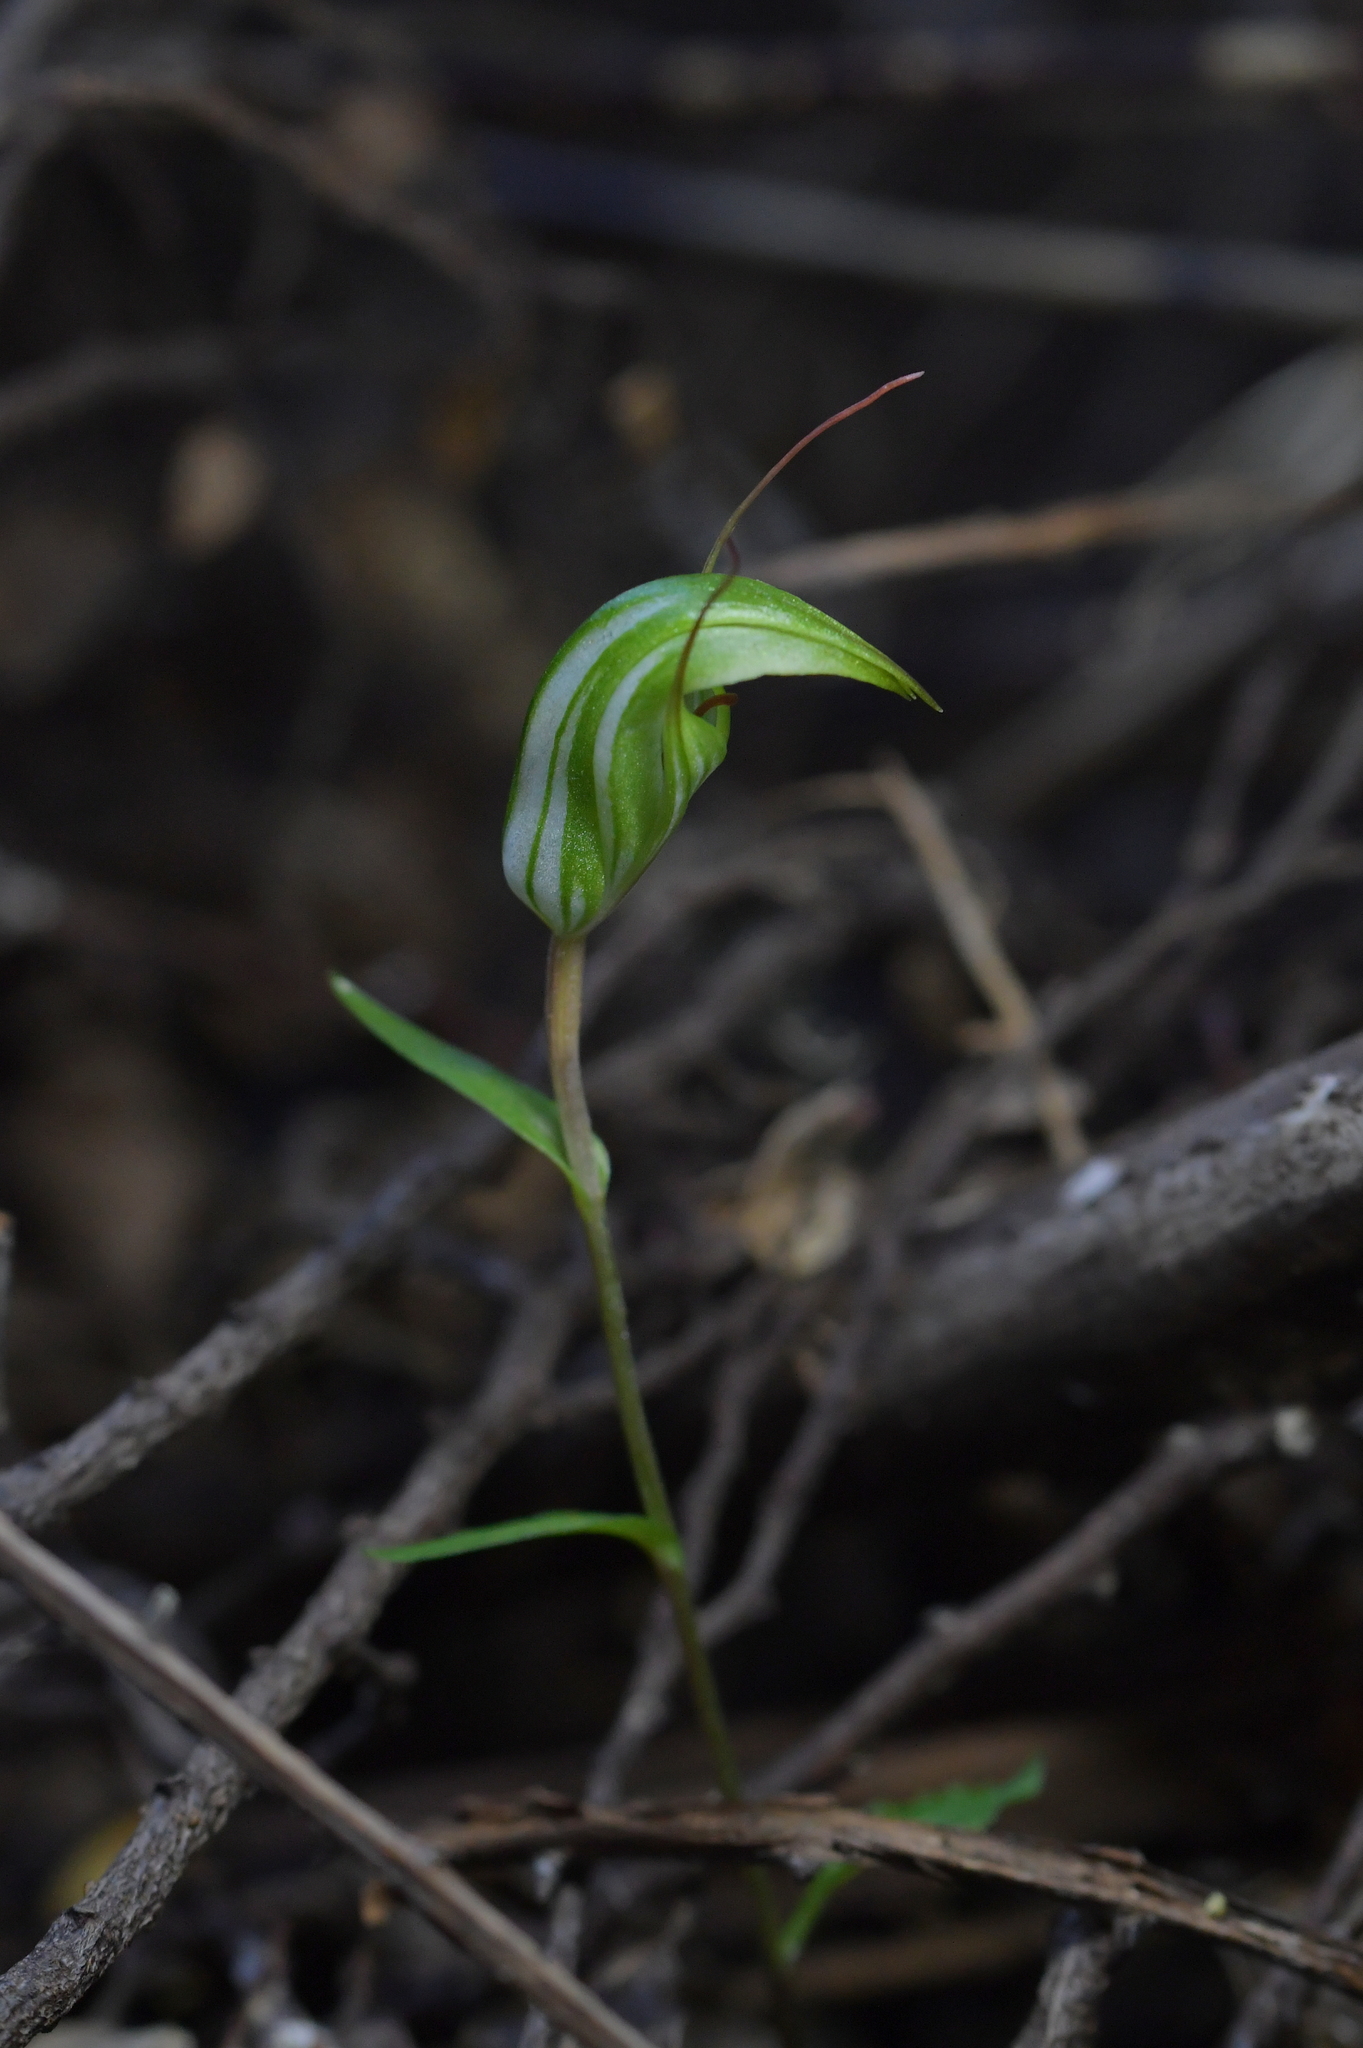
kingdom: Plantae
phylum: Tracheophyta
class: Liliopsida
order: Asparagales
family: Orchidaceae
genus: Pterostylis
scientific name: Pterostylis alobula
